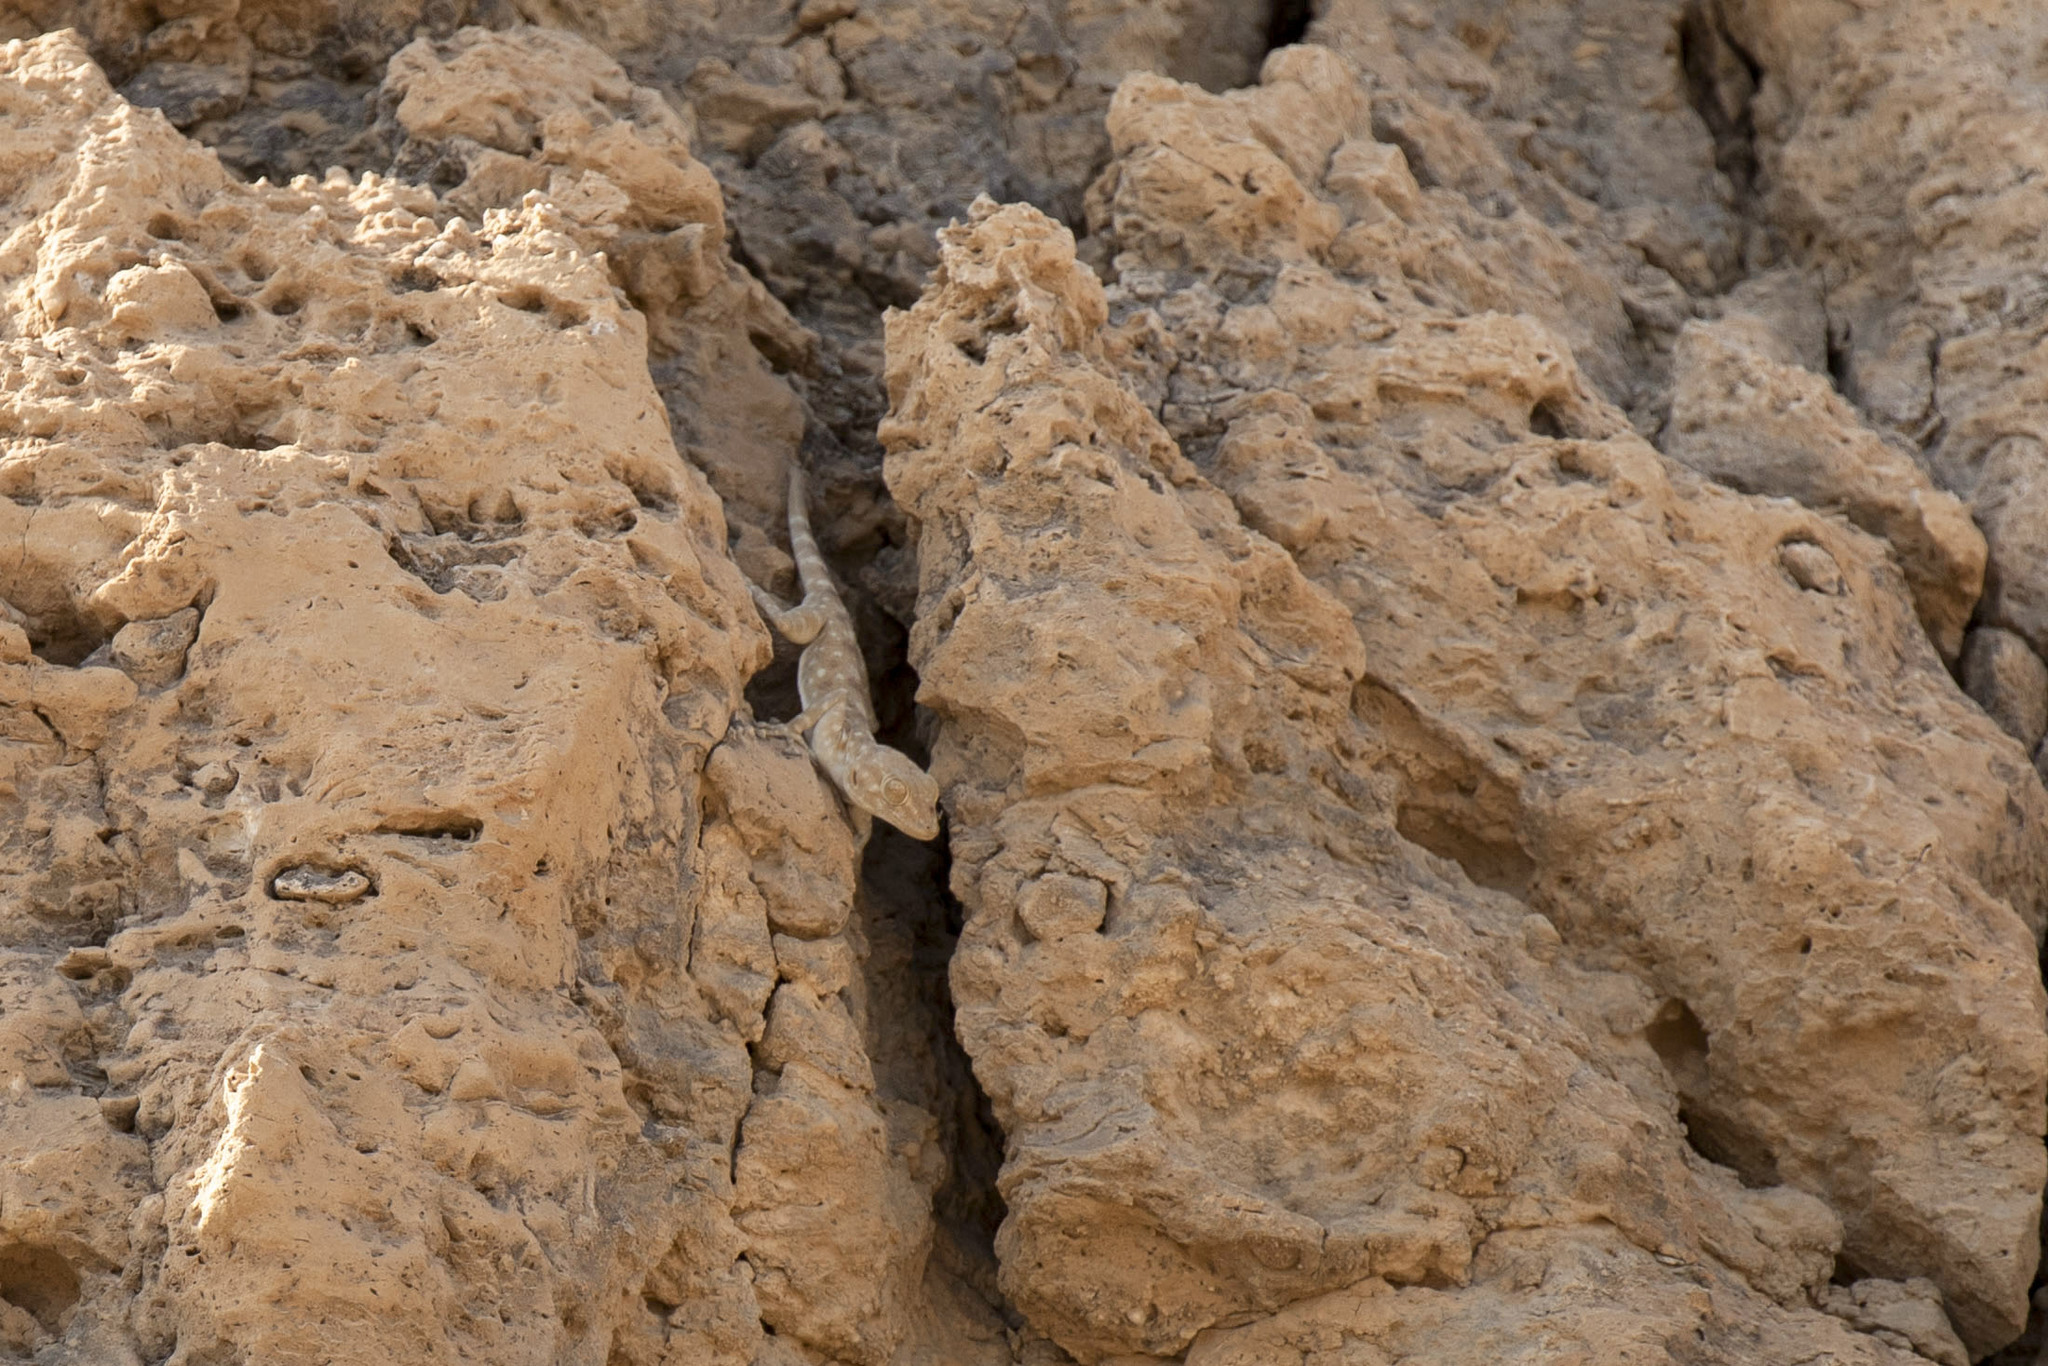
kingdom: Animalia
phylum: Chordata
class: Squamata
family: Phyllodactylidae
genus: Ptyodactylus
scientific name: Ptyodactylus guttatus
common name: Sinai fan-fingered gecko
